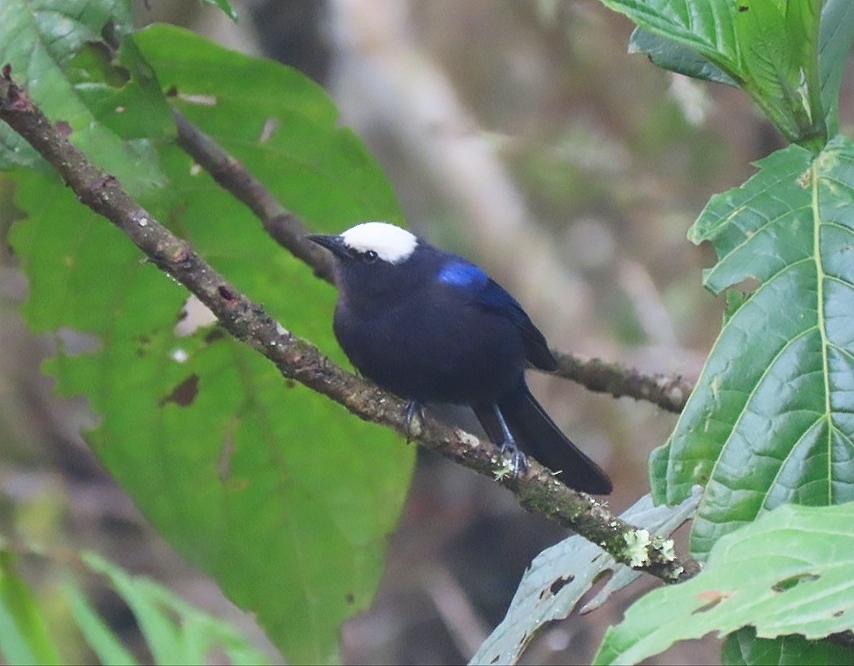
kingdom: Animalia
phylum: Chordata
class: Aves
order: Passeriformes
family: Thraupidae
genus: Conirostrum
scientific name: Conirostrum albifrons
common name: Capped conebill
